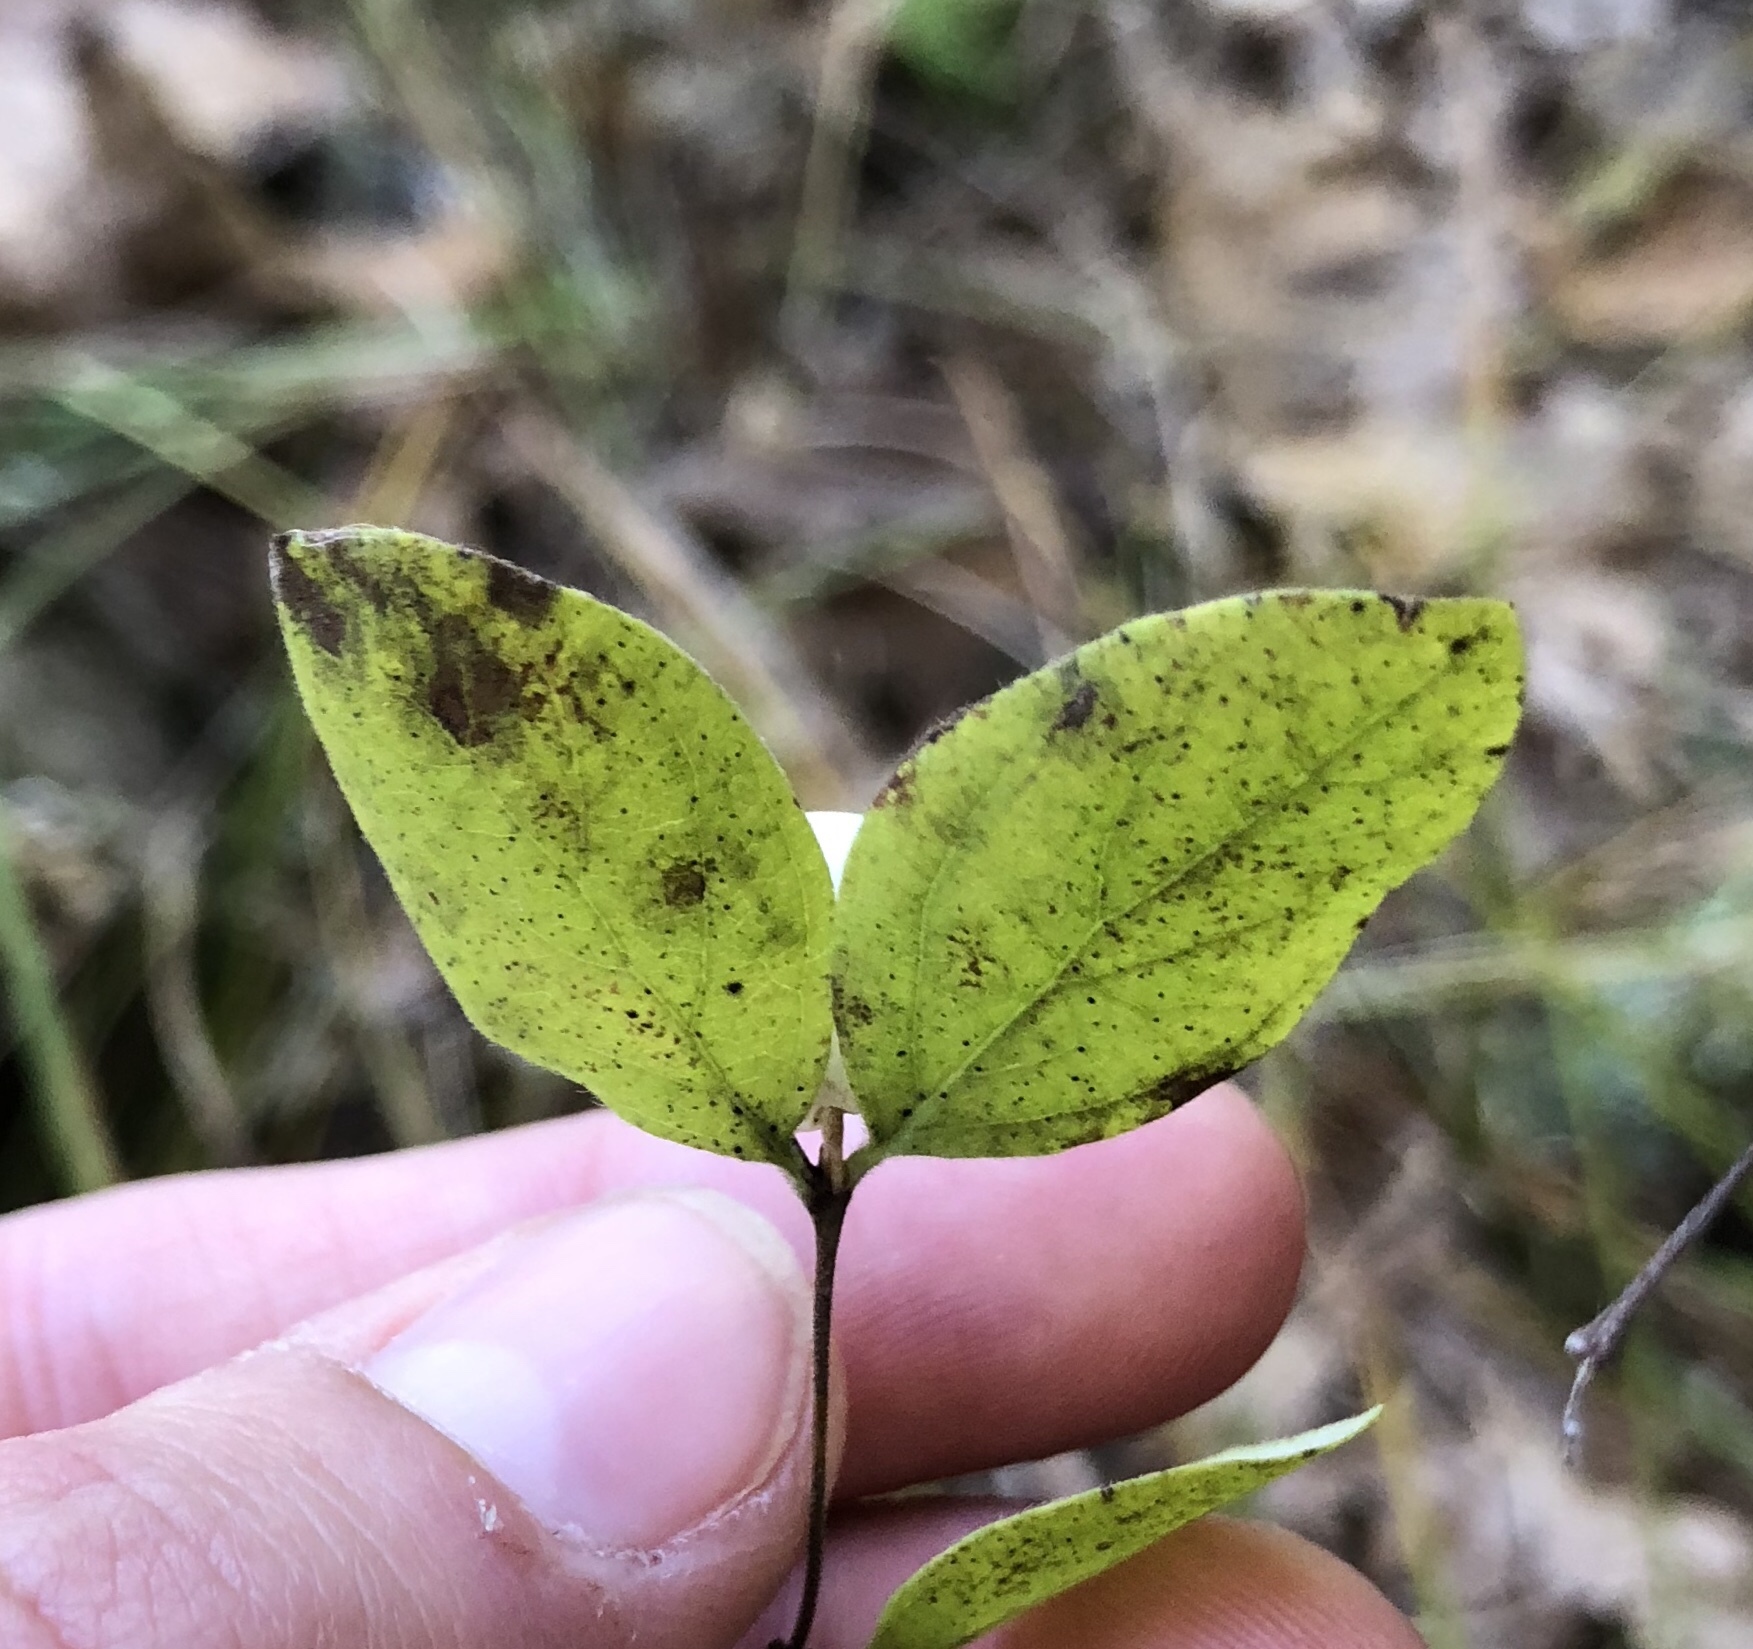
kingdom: Plantae
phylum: Tracheophyta
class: Magnoliopsida
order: Dipsacales
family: Caprifoliaceae
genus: Symphoricarpos
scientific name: Symphoricarpos albus
